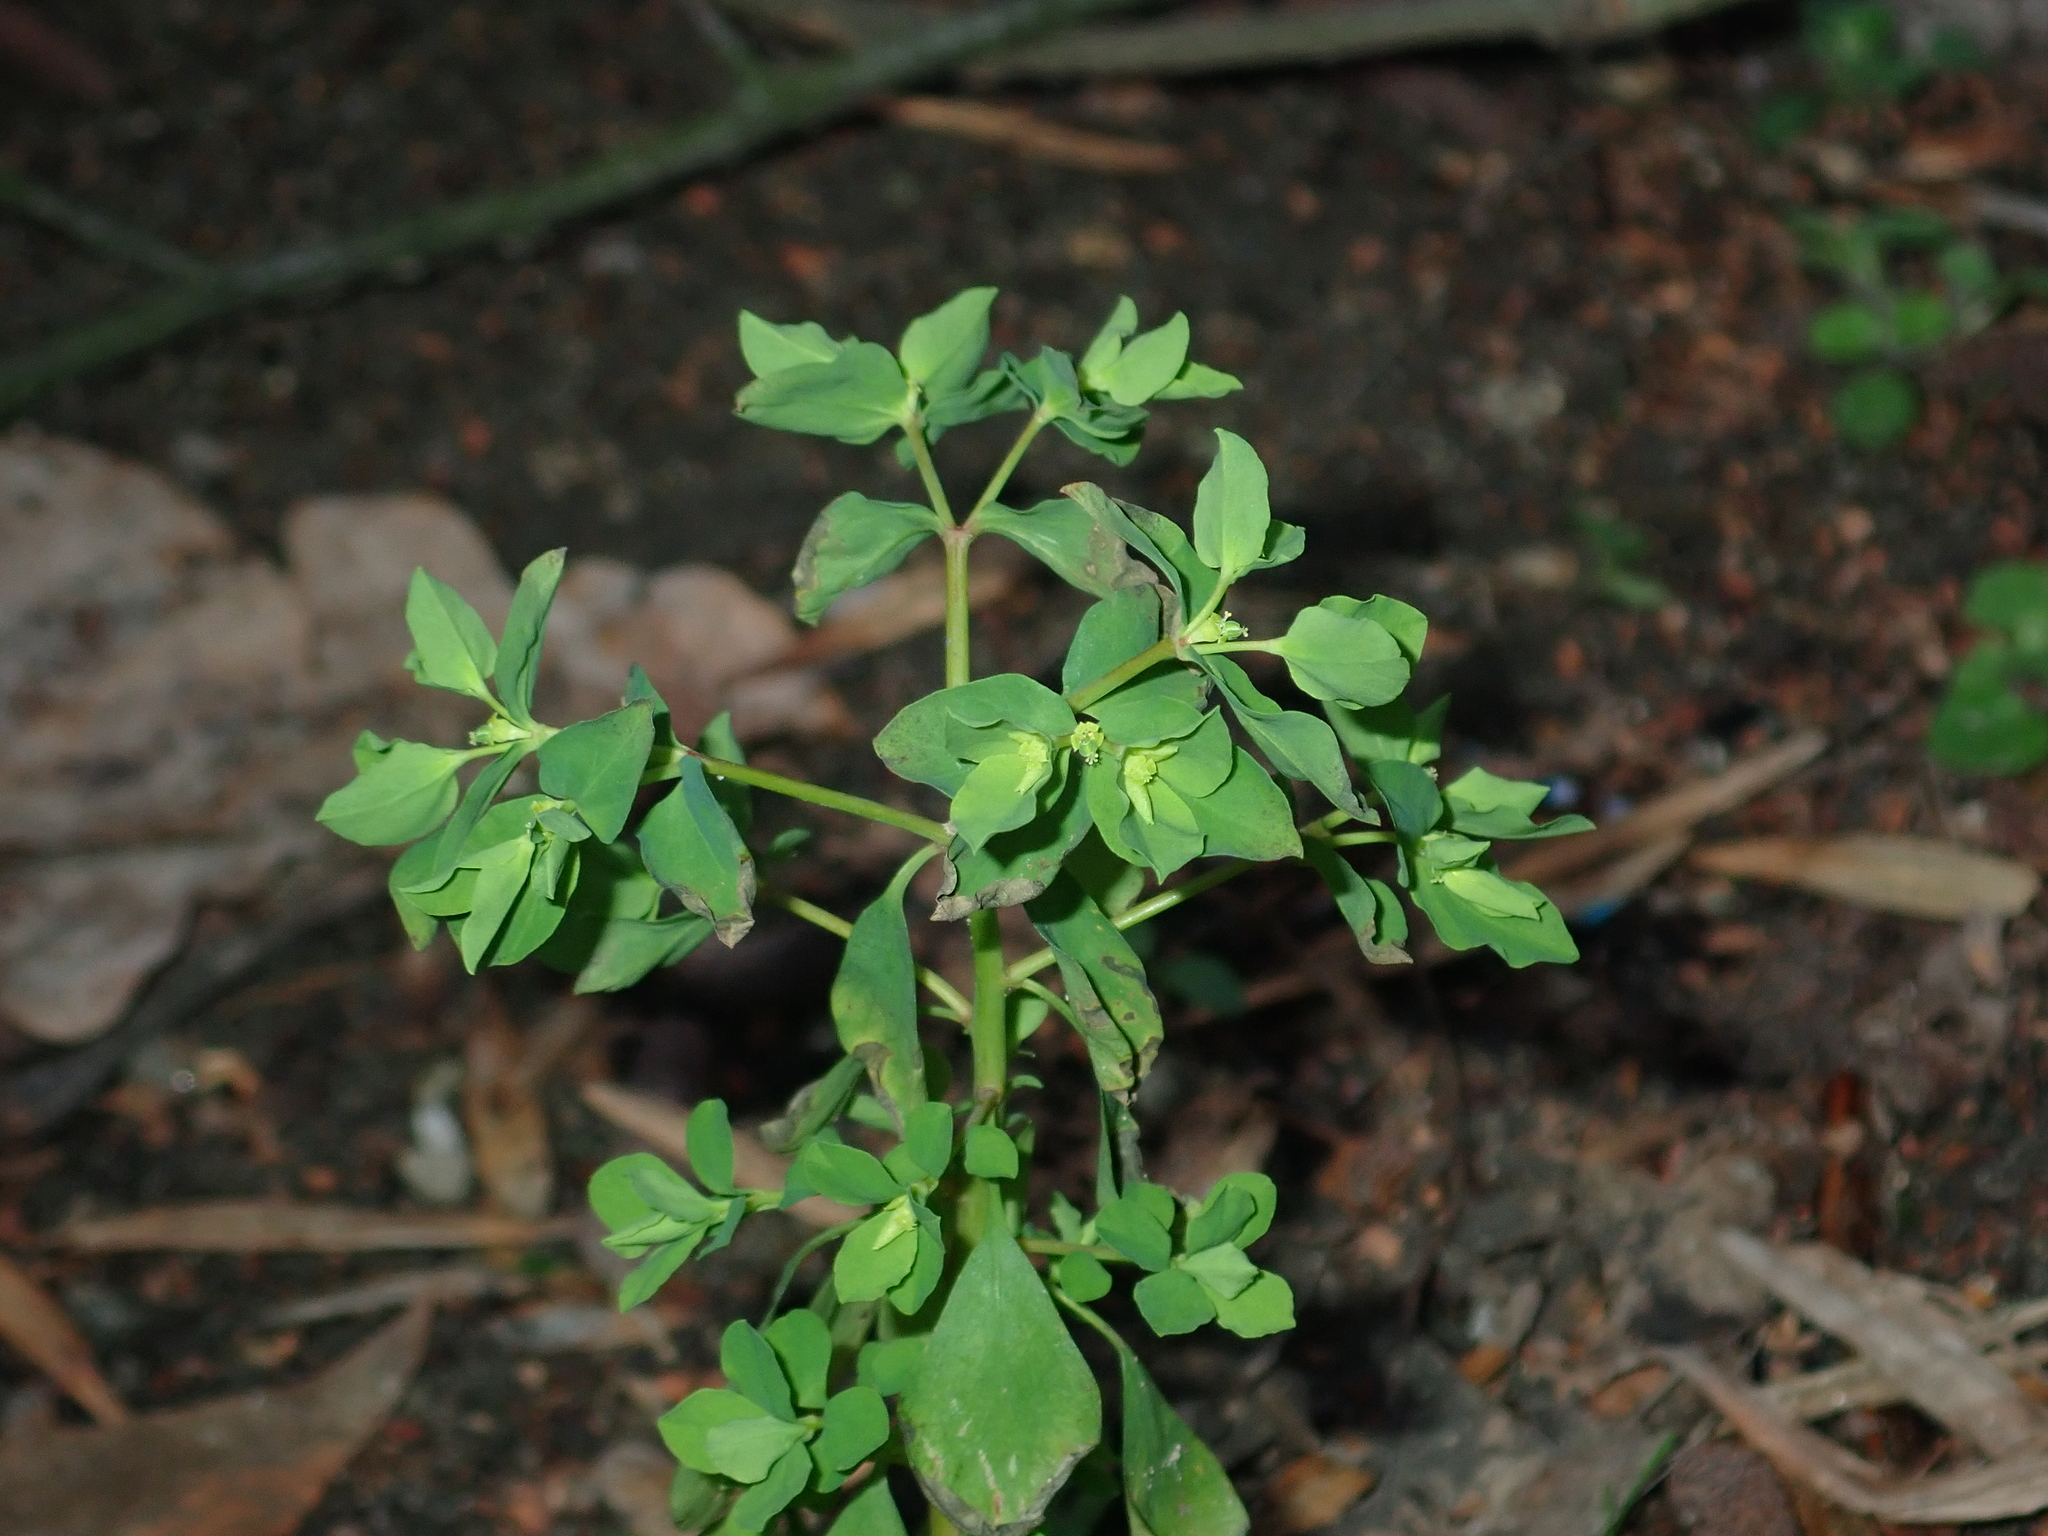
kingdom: Plantae
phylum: Tracheophyta
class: Magnoliopsida
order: Malpighiales
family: Euphorbiaceae
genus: Euphorbia
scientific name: Euphorbia peplus
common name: Petty spurge
